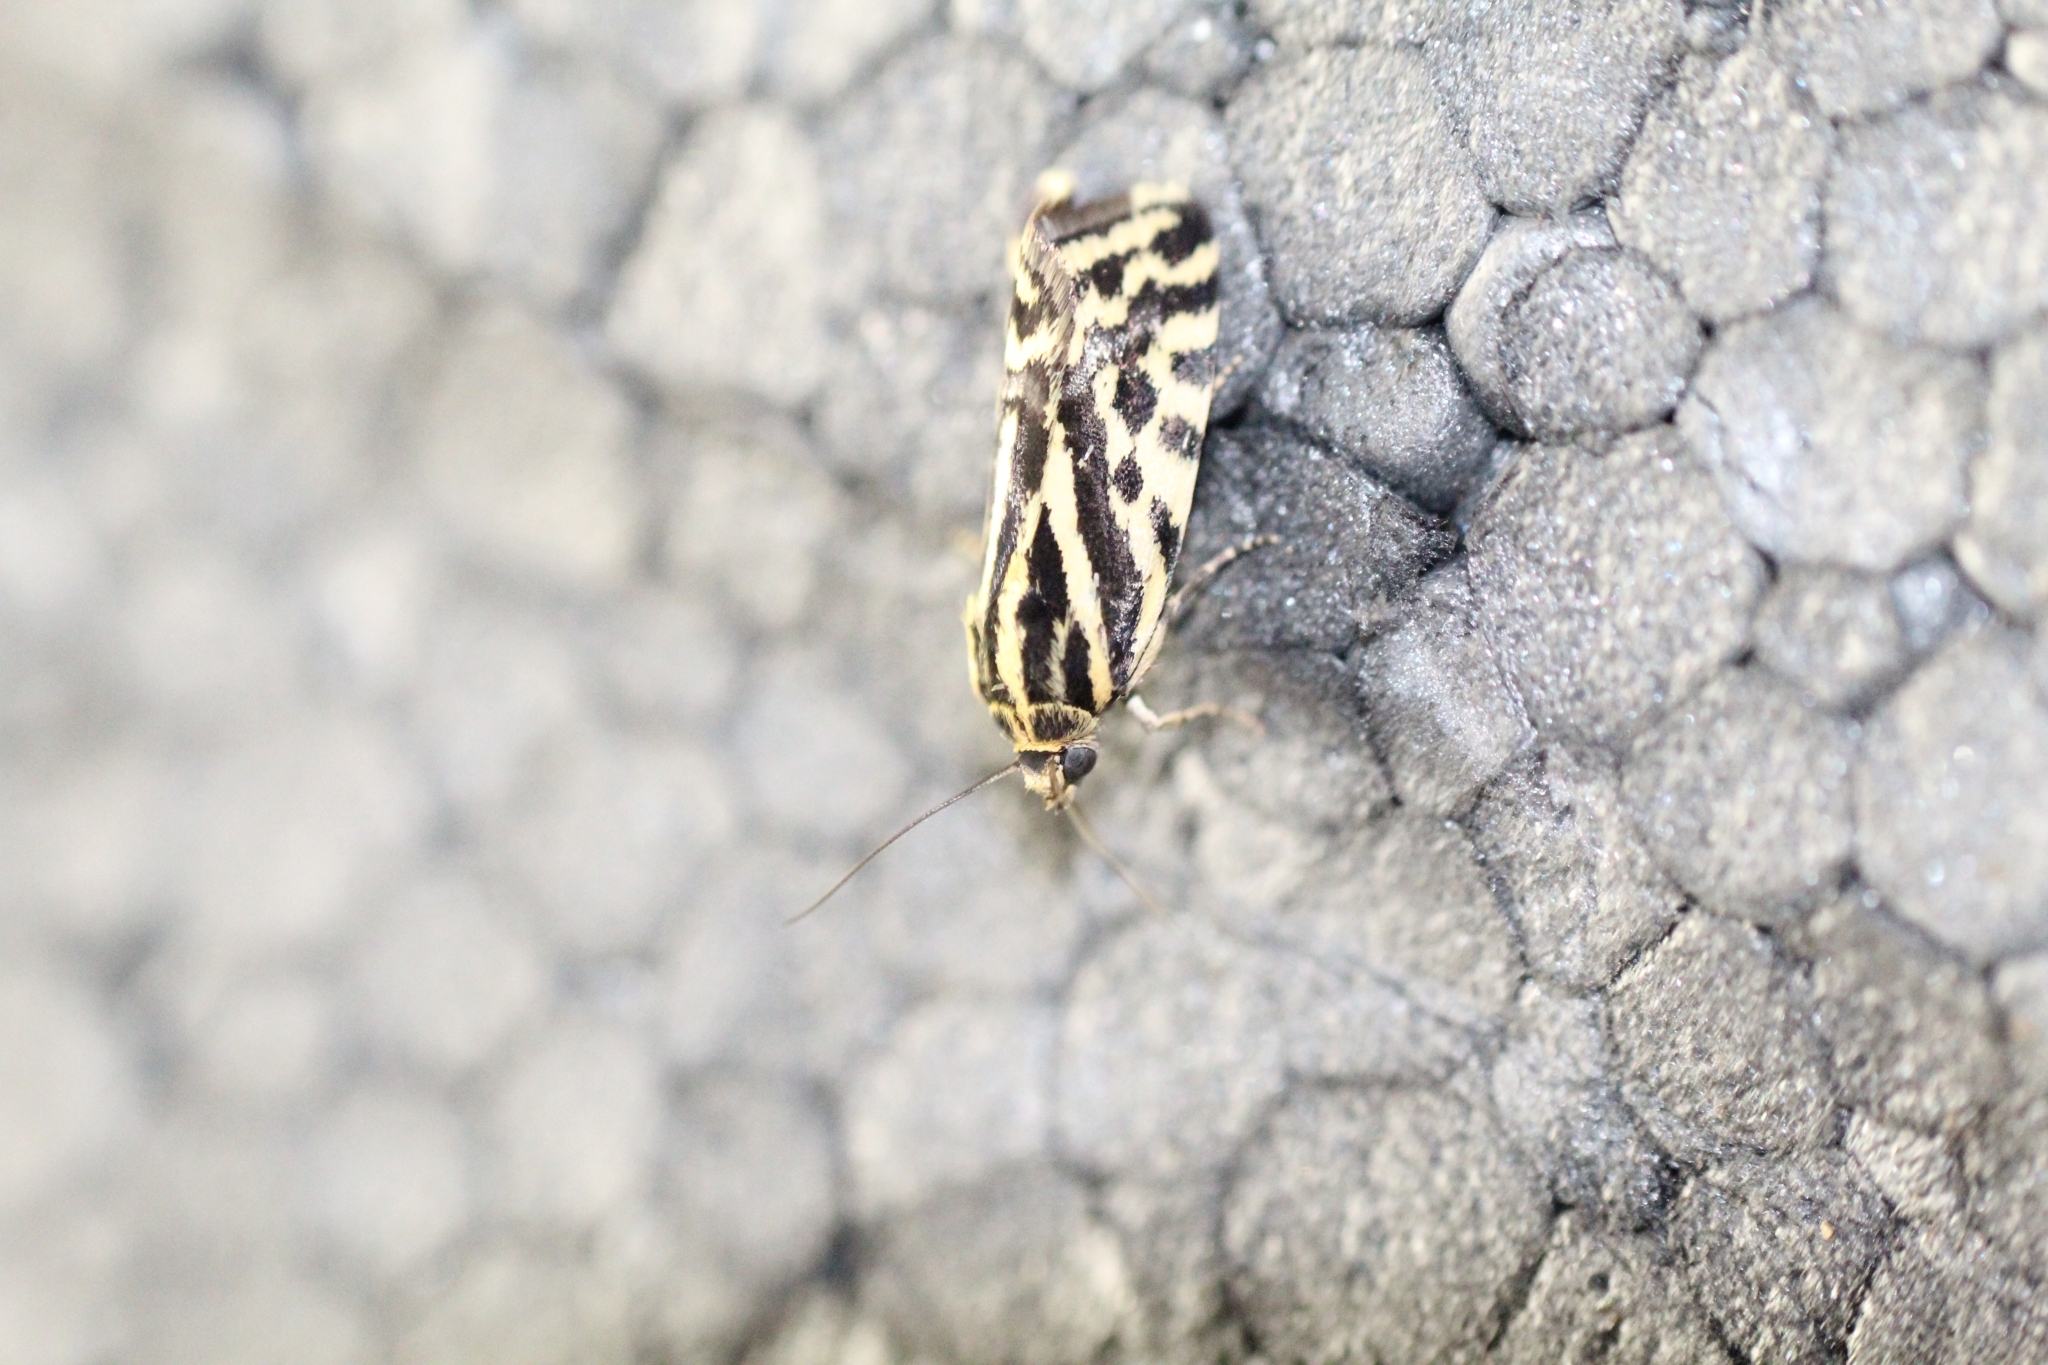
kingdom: Animalia
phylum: Arthropoda
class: Insecta
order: Lepidoptera
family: Noctuidae
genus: Acontia
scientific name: Acontia trabealis
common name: Spotted sulphur
